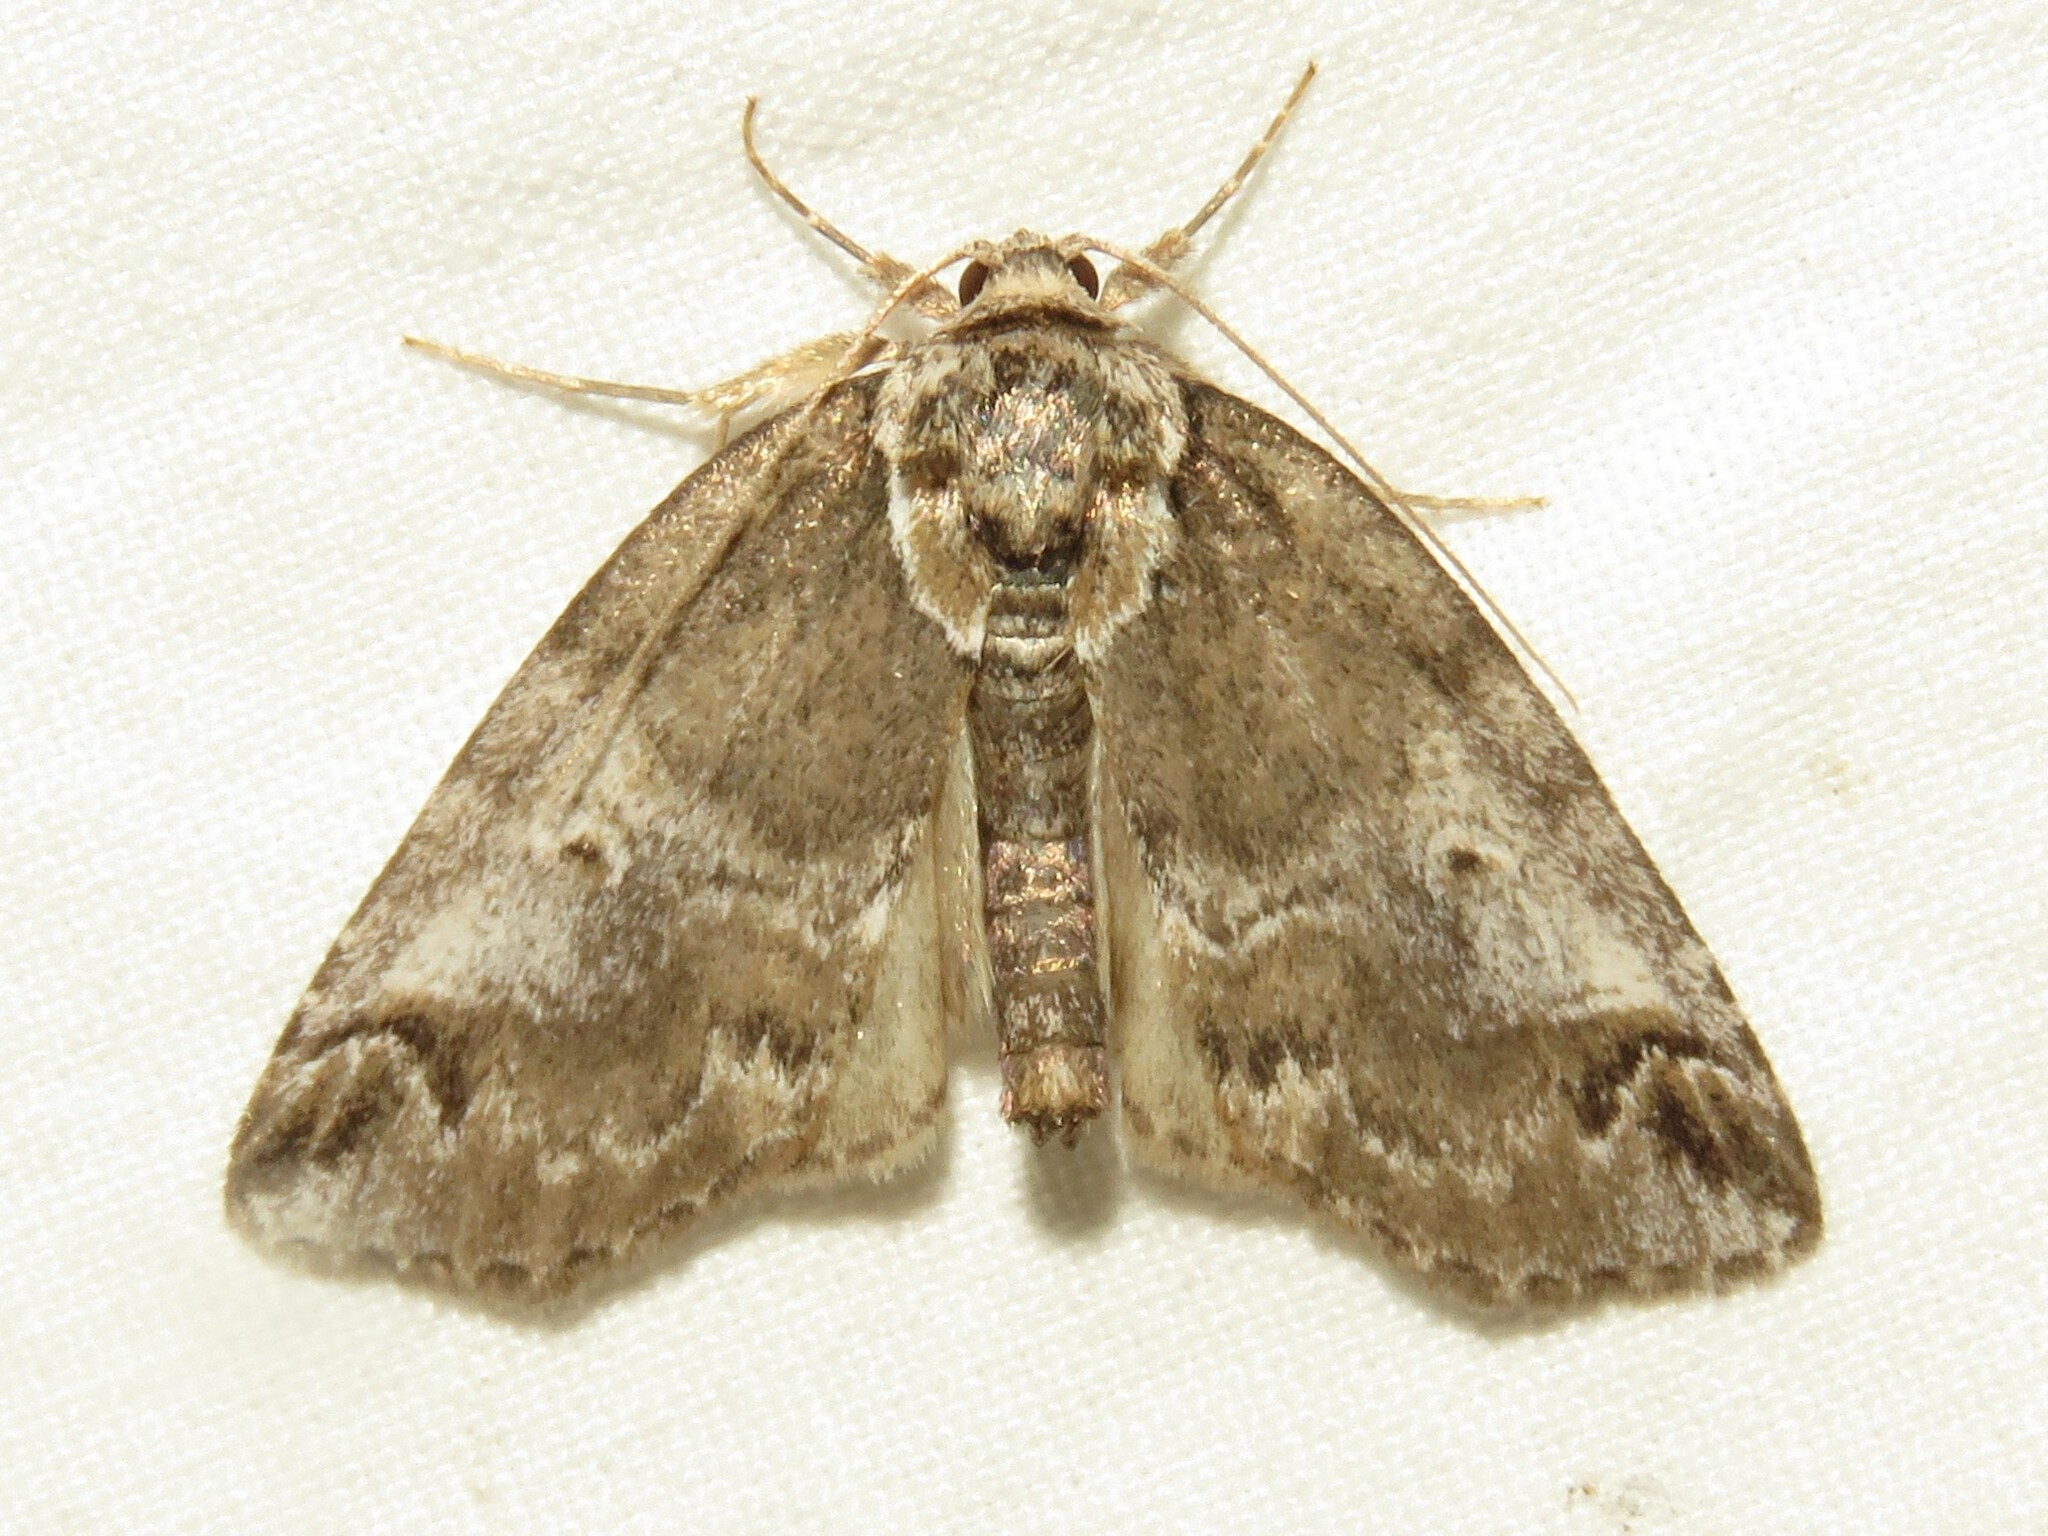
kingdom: Animalia
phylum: Arthropoda
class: Insecta
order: Lepidoptera
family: Nolidae
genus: Baileya
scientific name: Baileya ophthalmica
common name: Eyed baileya moth
